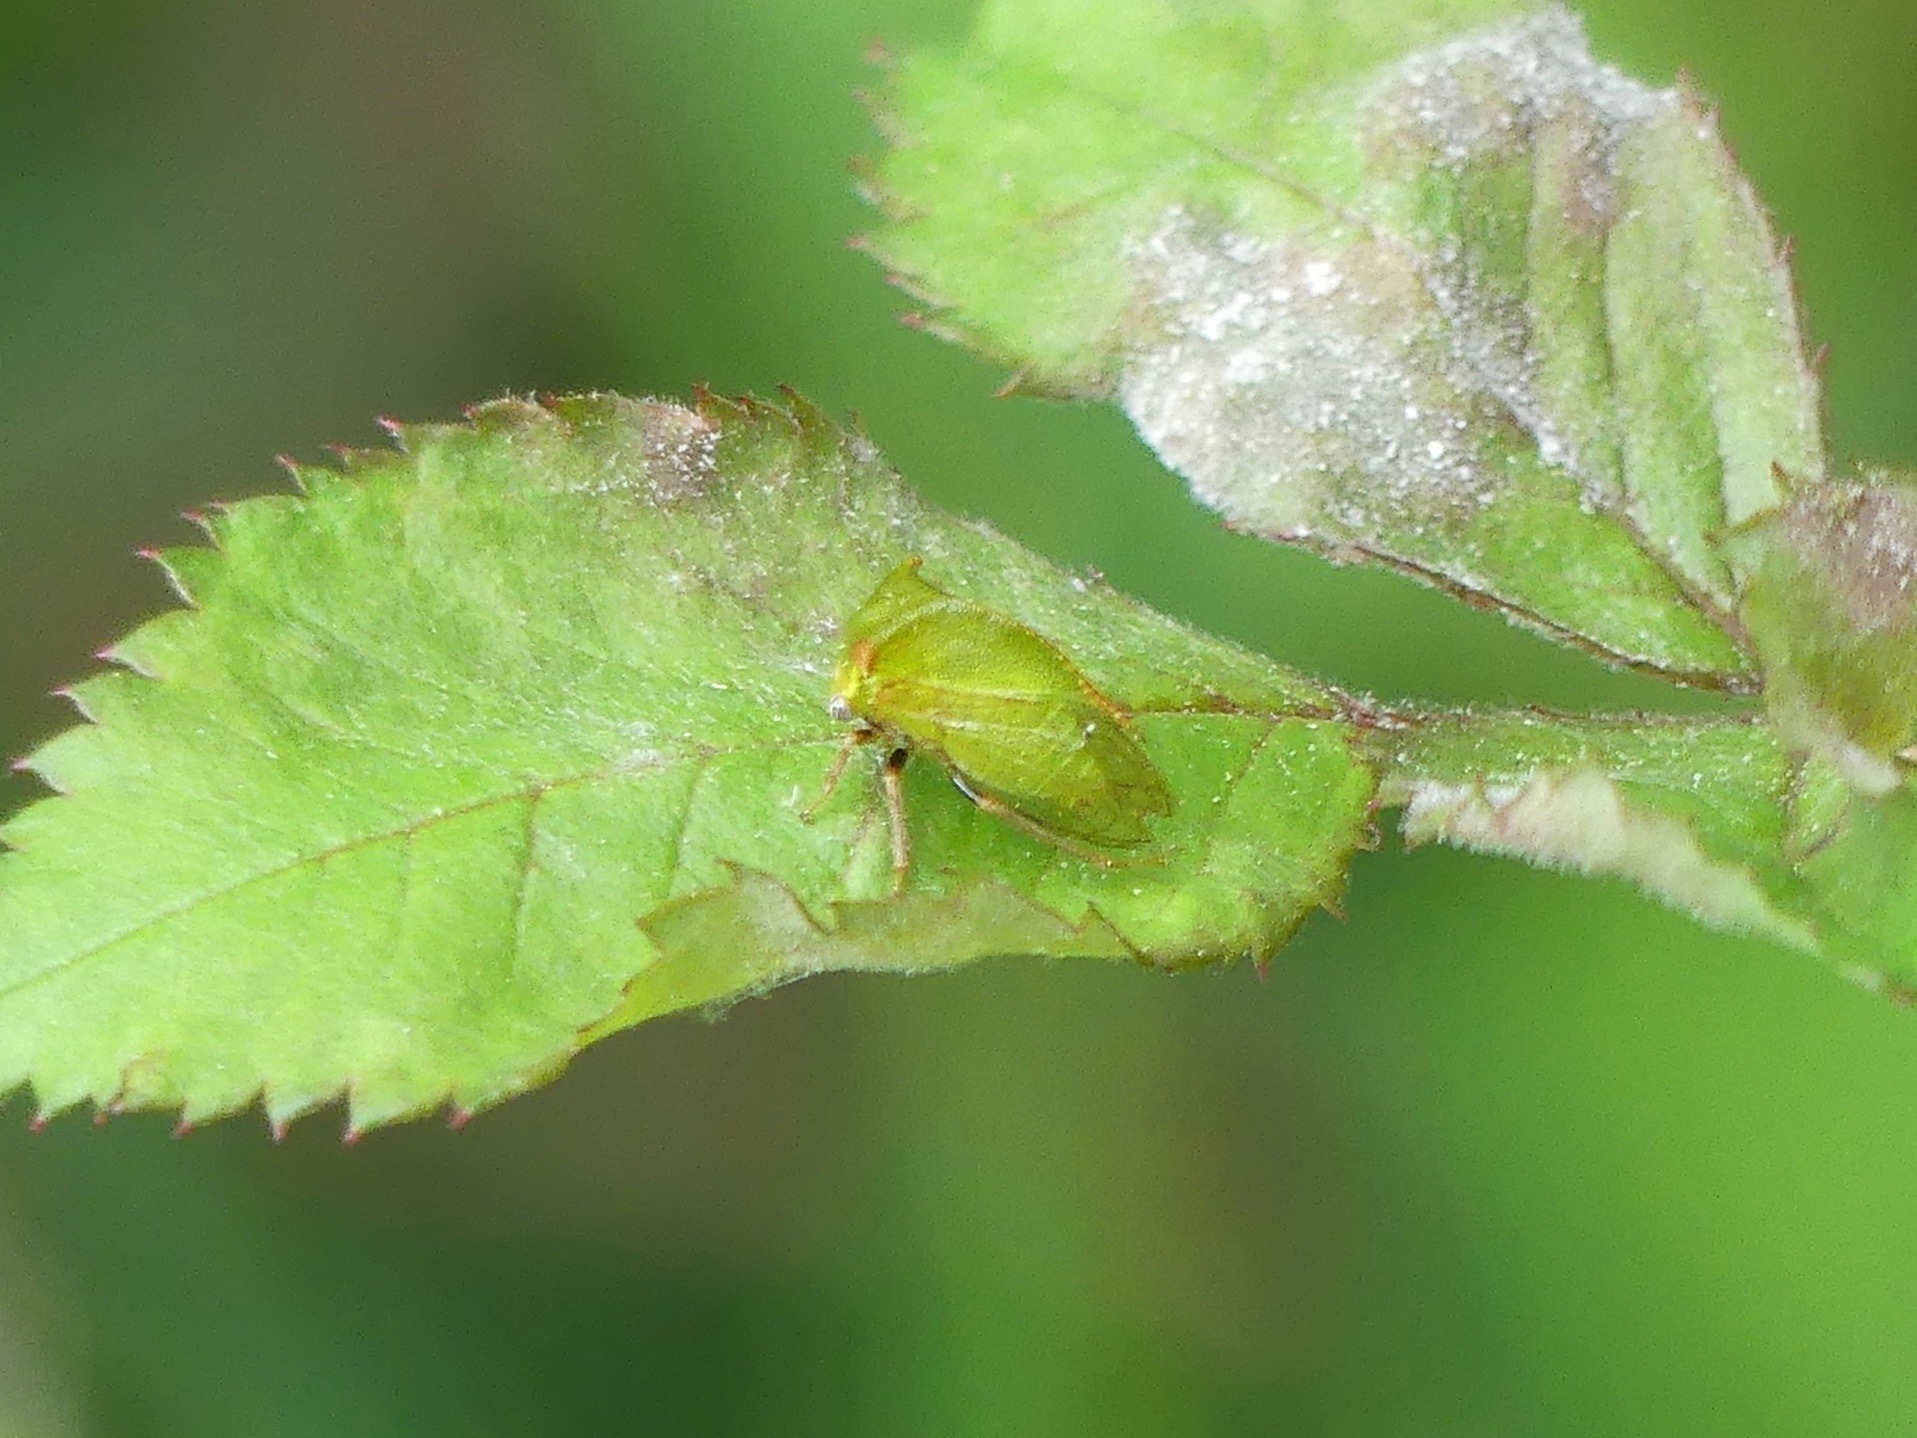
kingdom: Animalia
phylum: Arthropoda
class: Insecta
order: Hemiptera
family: Membracidae
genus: Stictocephala
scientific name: Stictocephala brevitylus
